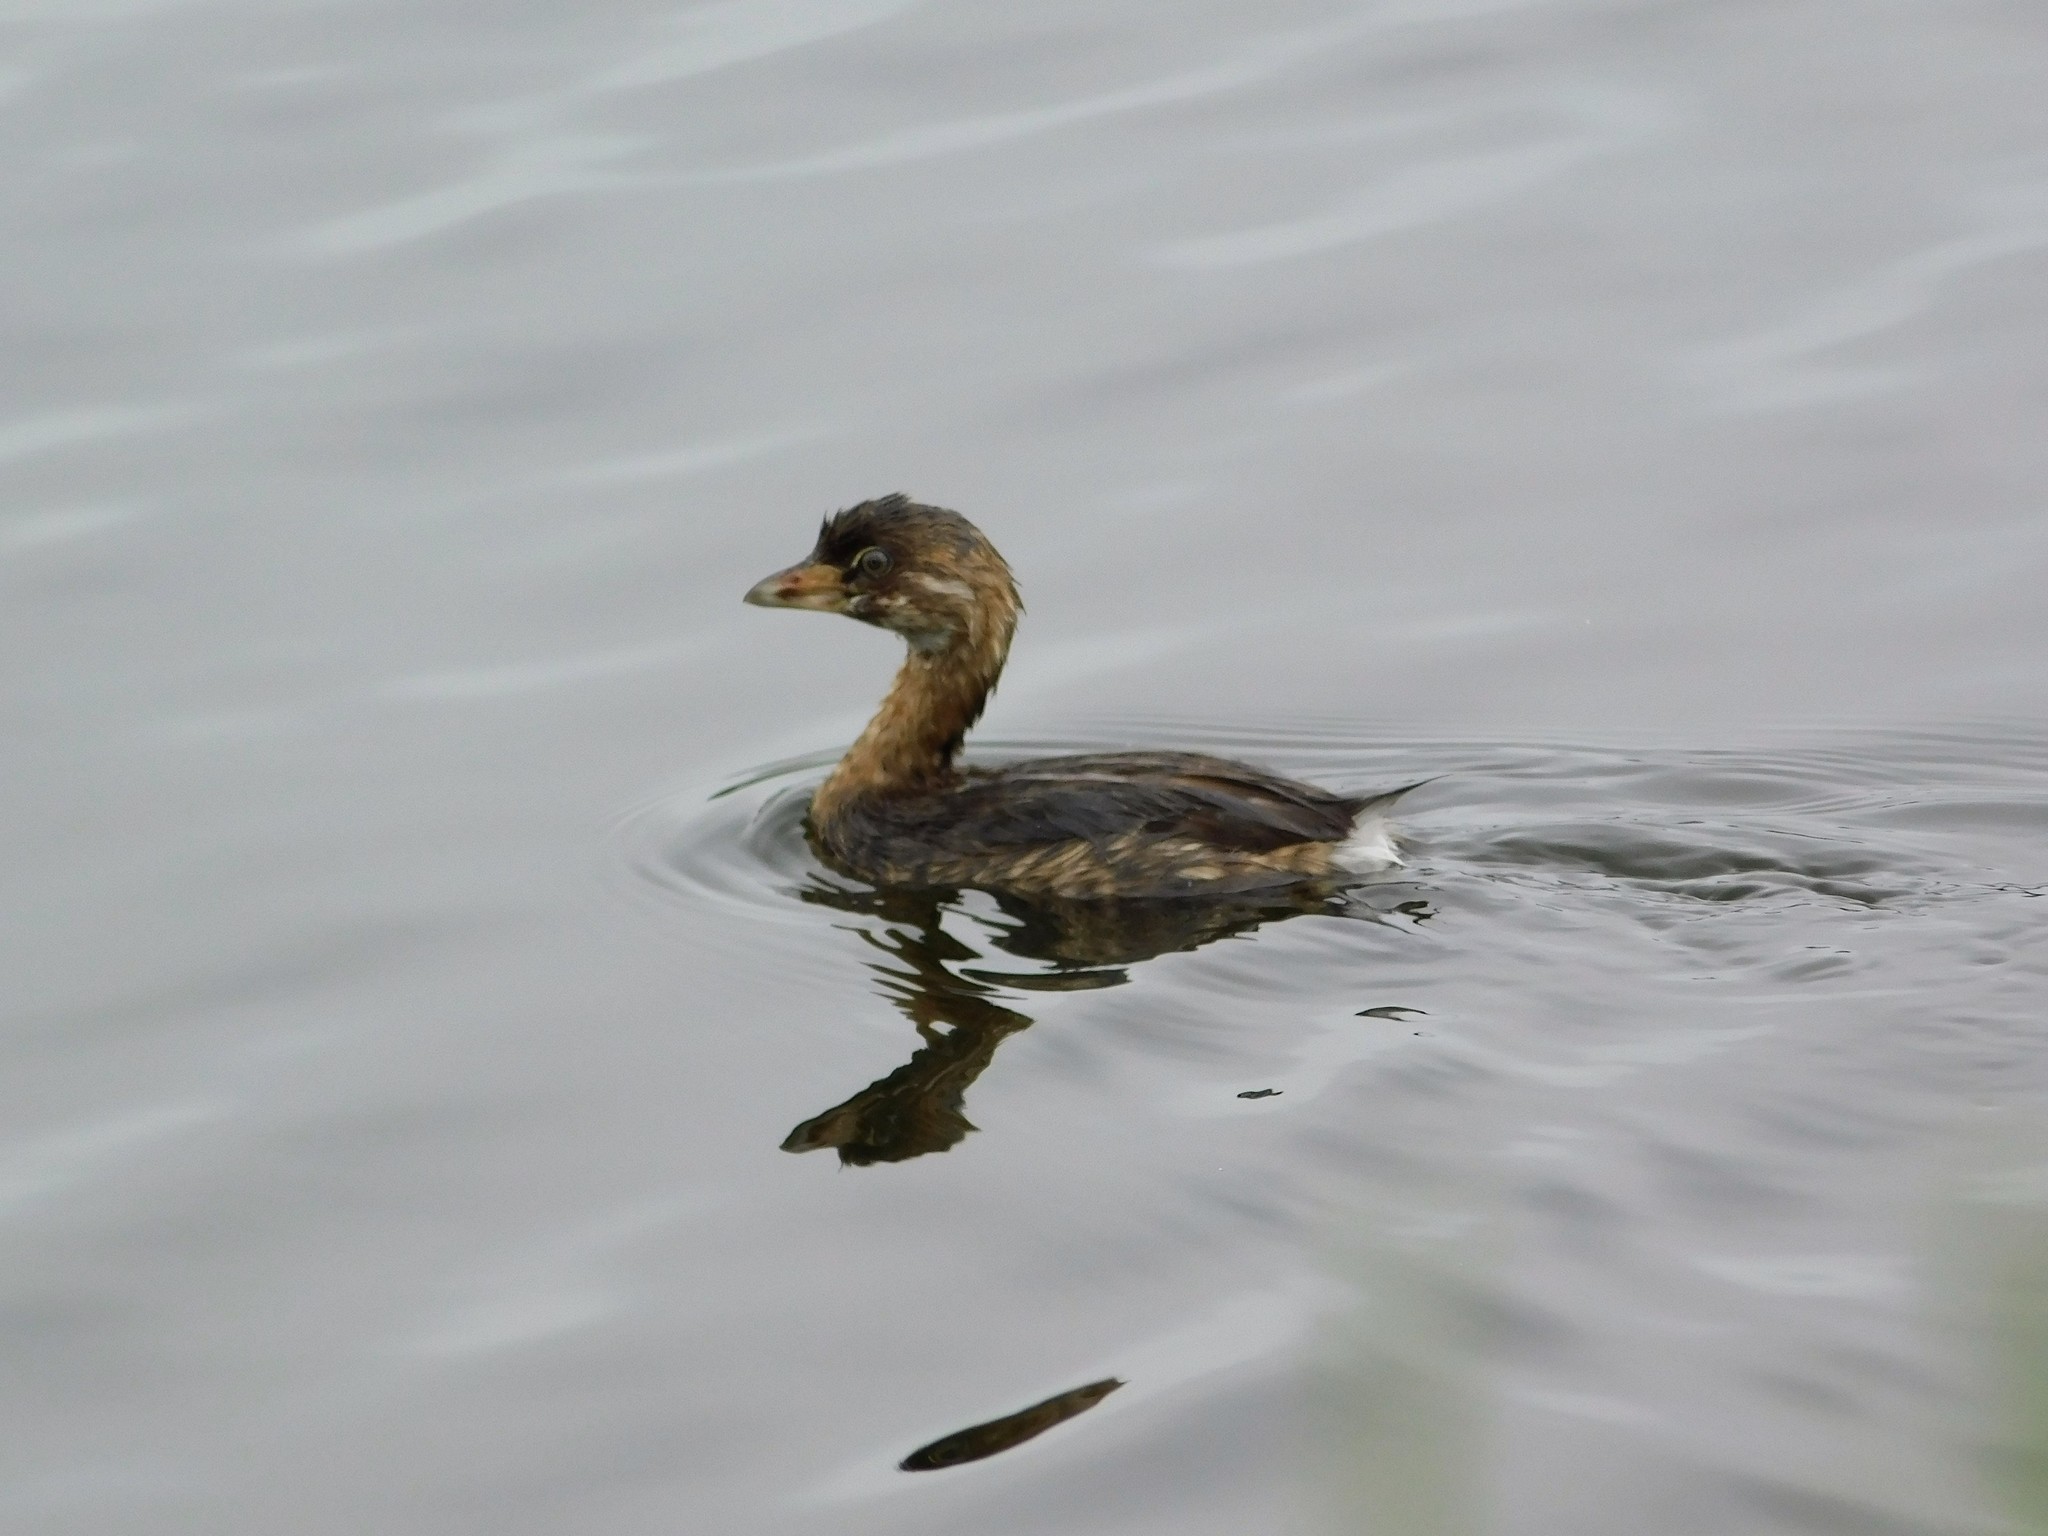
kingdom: Animalia
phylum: Chordata
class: Aves
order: Podicipediformes
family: Podicipedidae
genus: Podilymbus
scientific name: Podilymbus podiceps
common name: Pied-billed grebe
